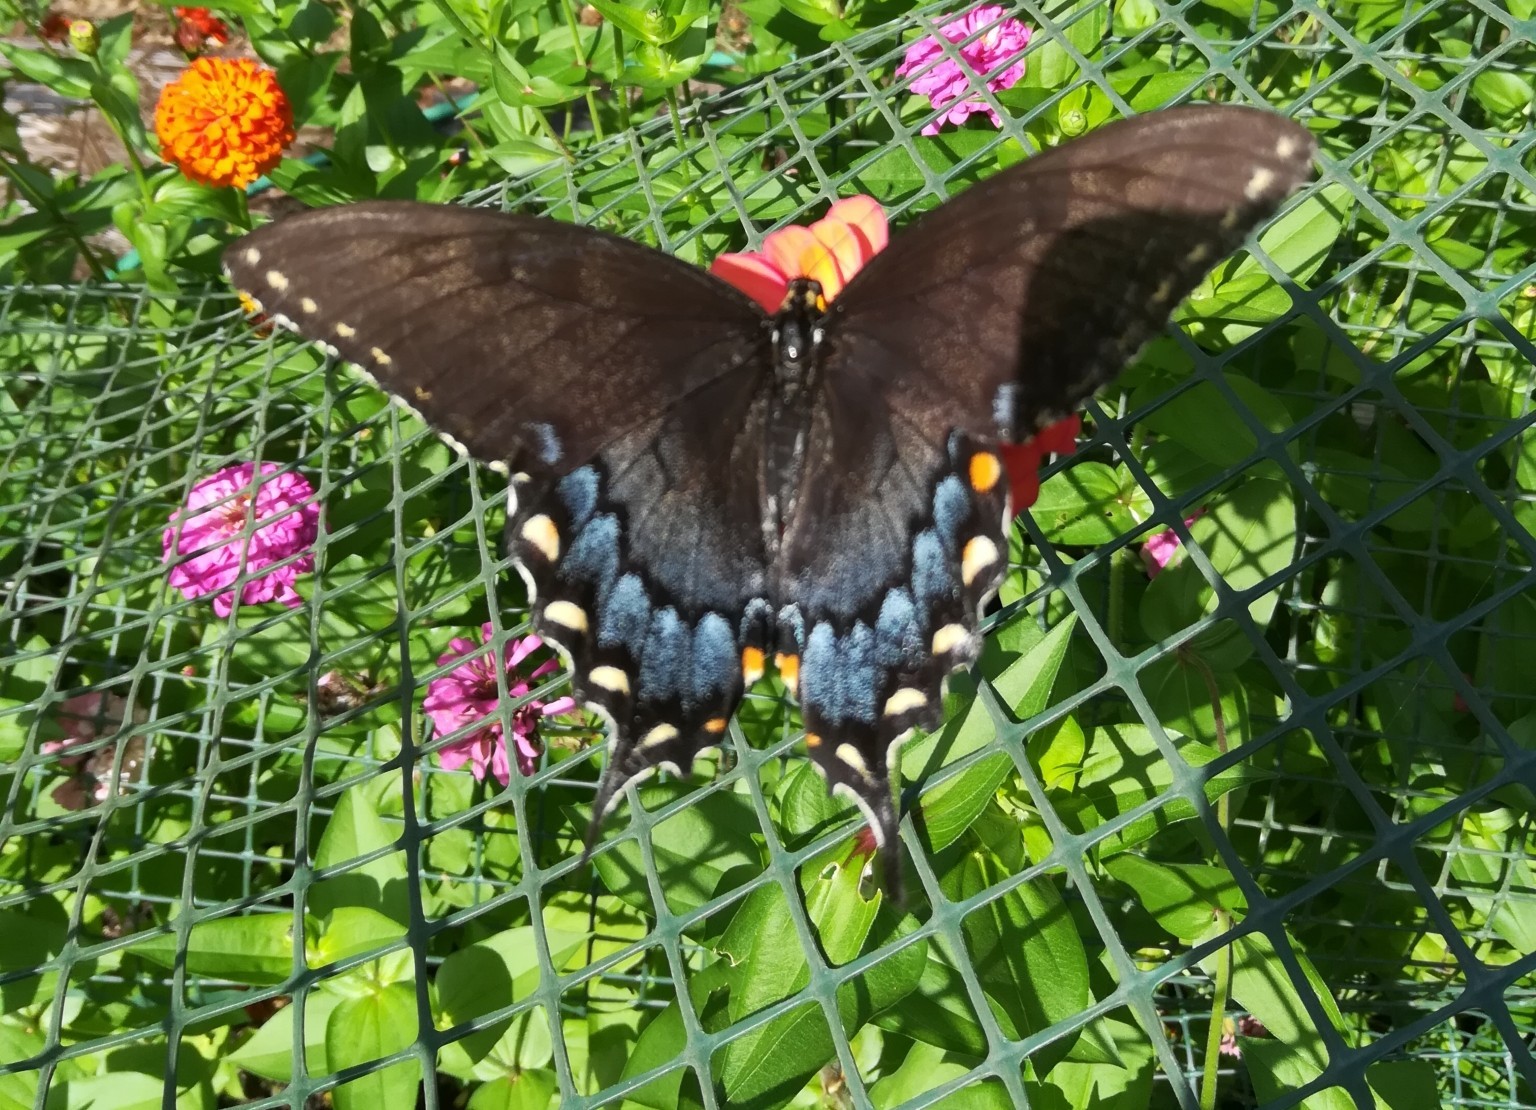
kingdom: Animalia
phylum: Arthropoda
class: Insecta
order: Lepidoptera
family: Papilionidae
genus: Papilio
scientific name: Papilio glaucus
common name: Tiger swallowtail
